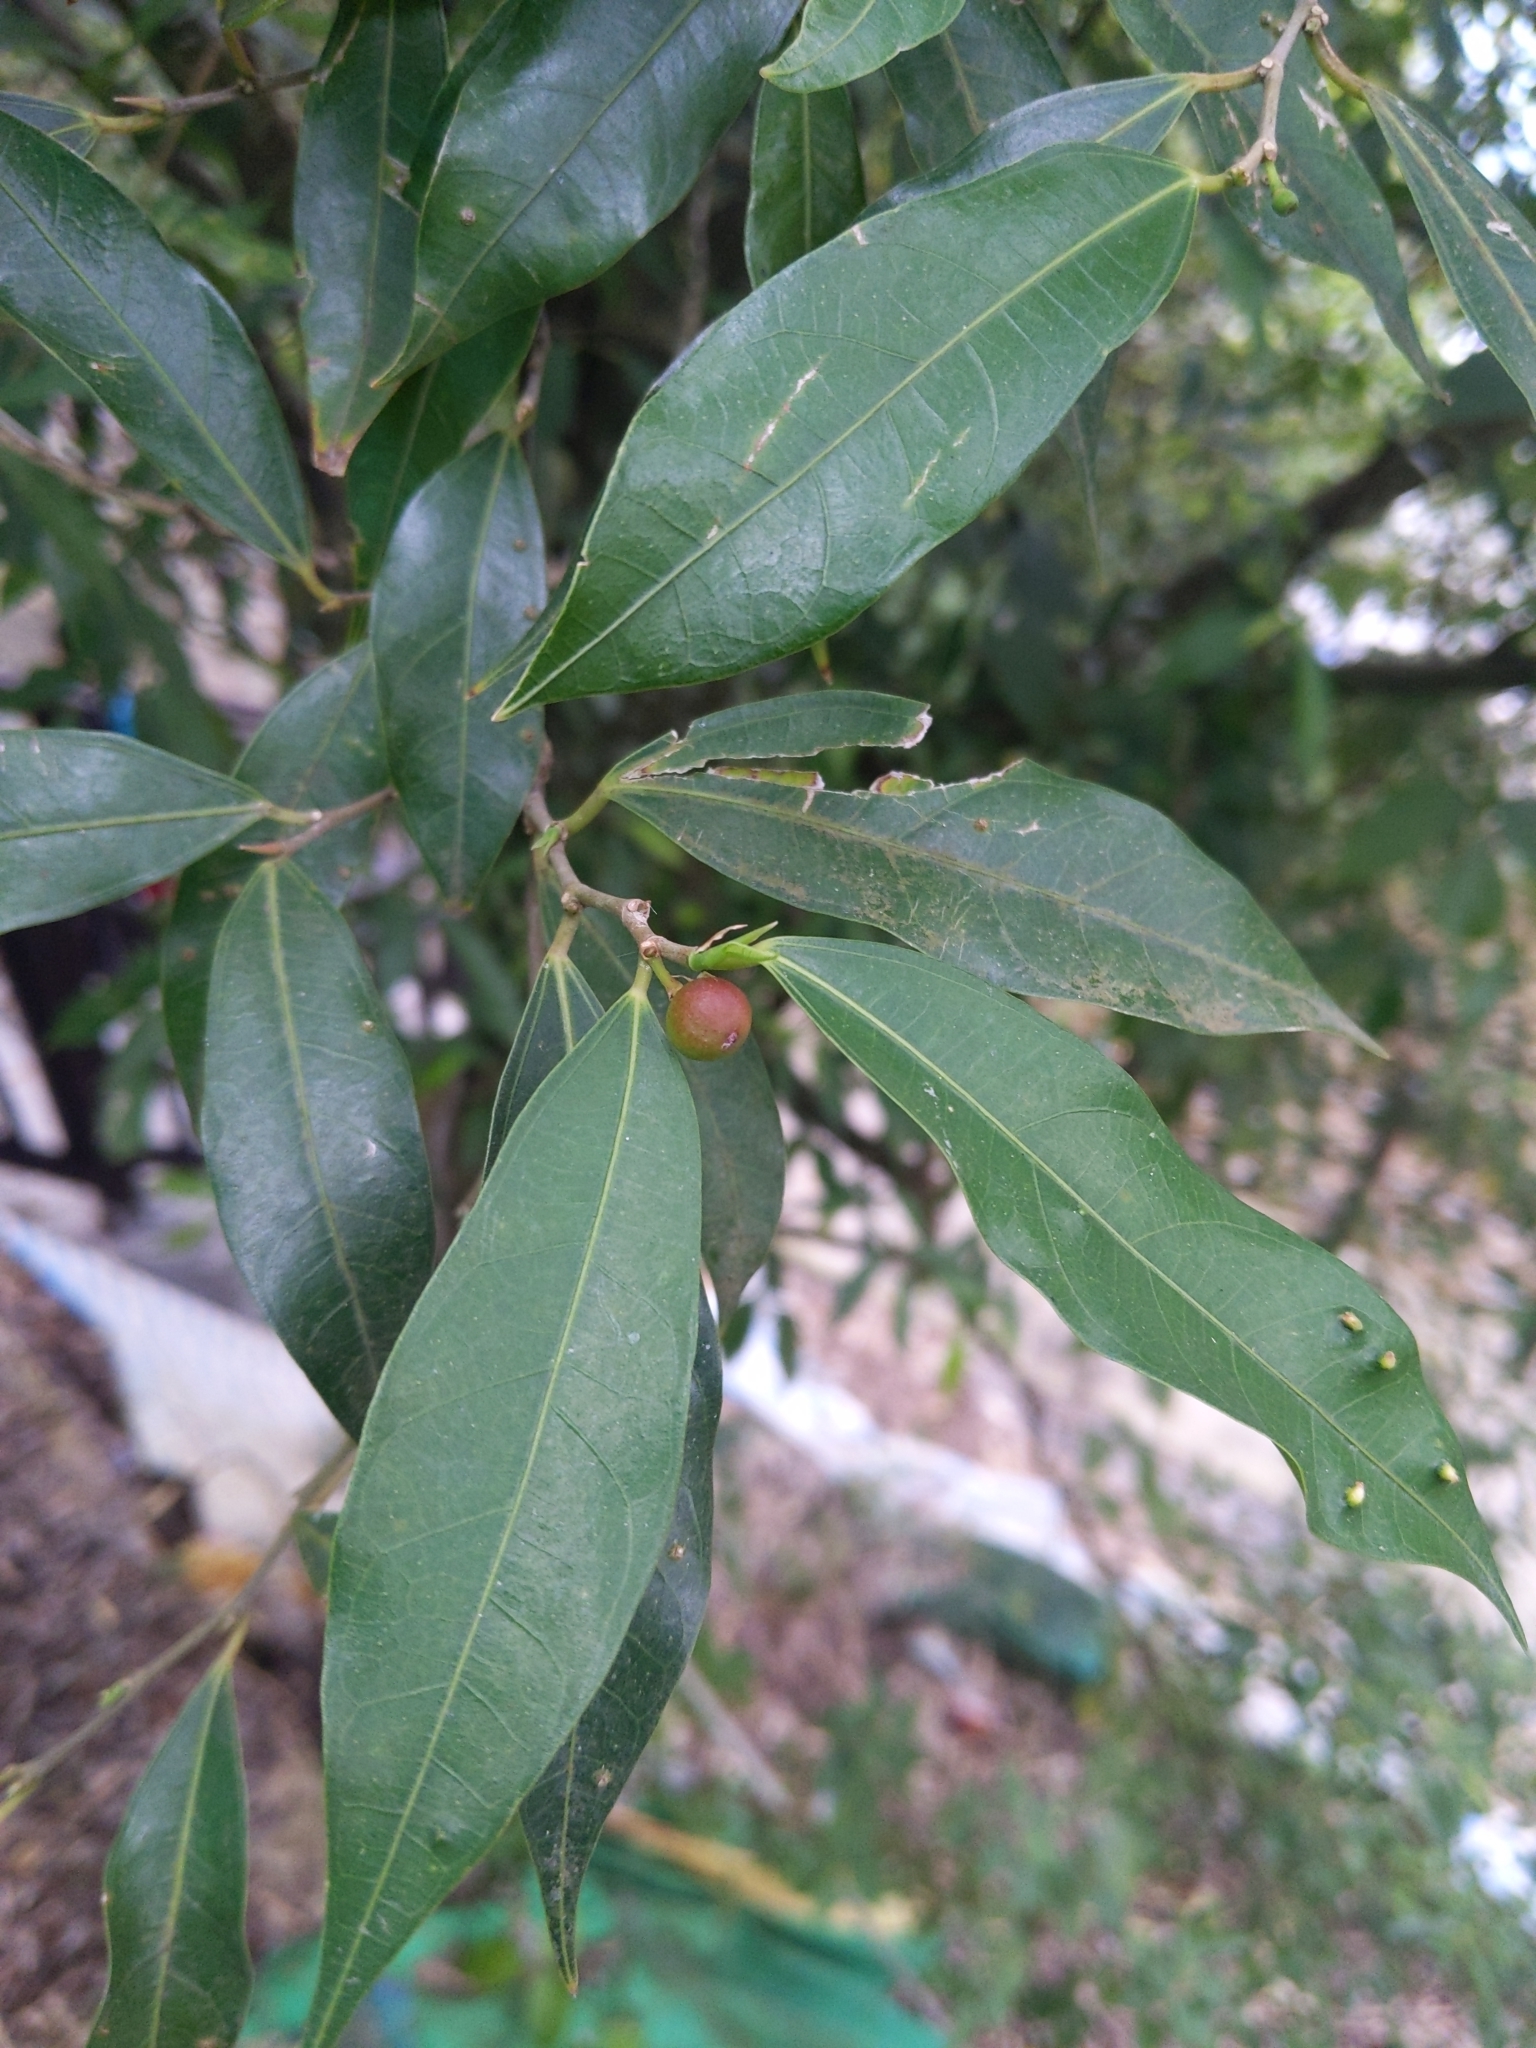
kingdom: Plantae
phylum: Tracheophyta
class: Magnoliopsida
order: Rosales
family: Moraceae
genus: Ficus
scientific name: Ficus ampelos
